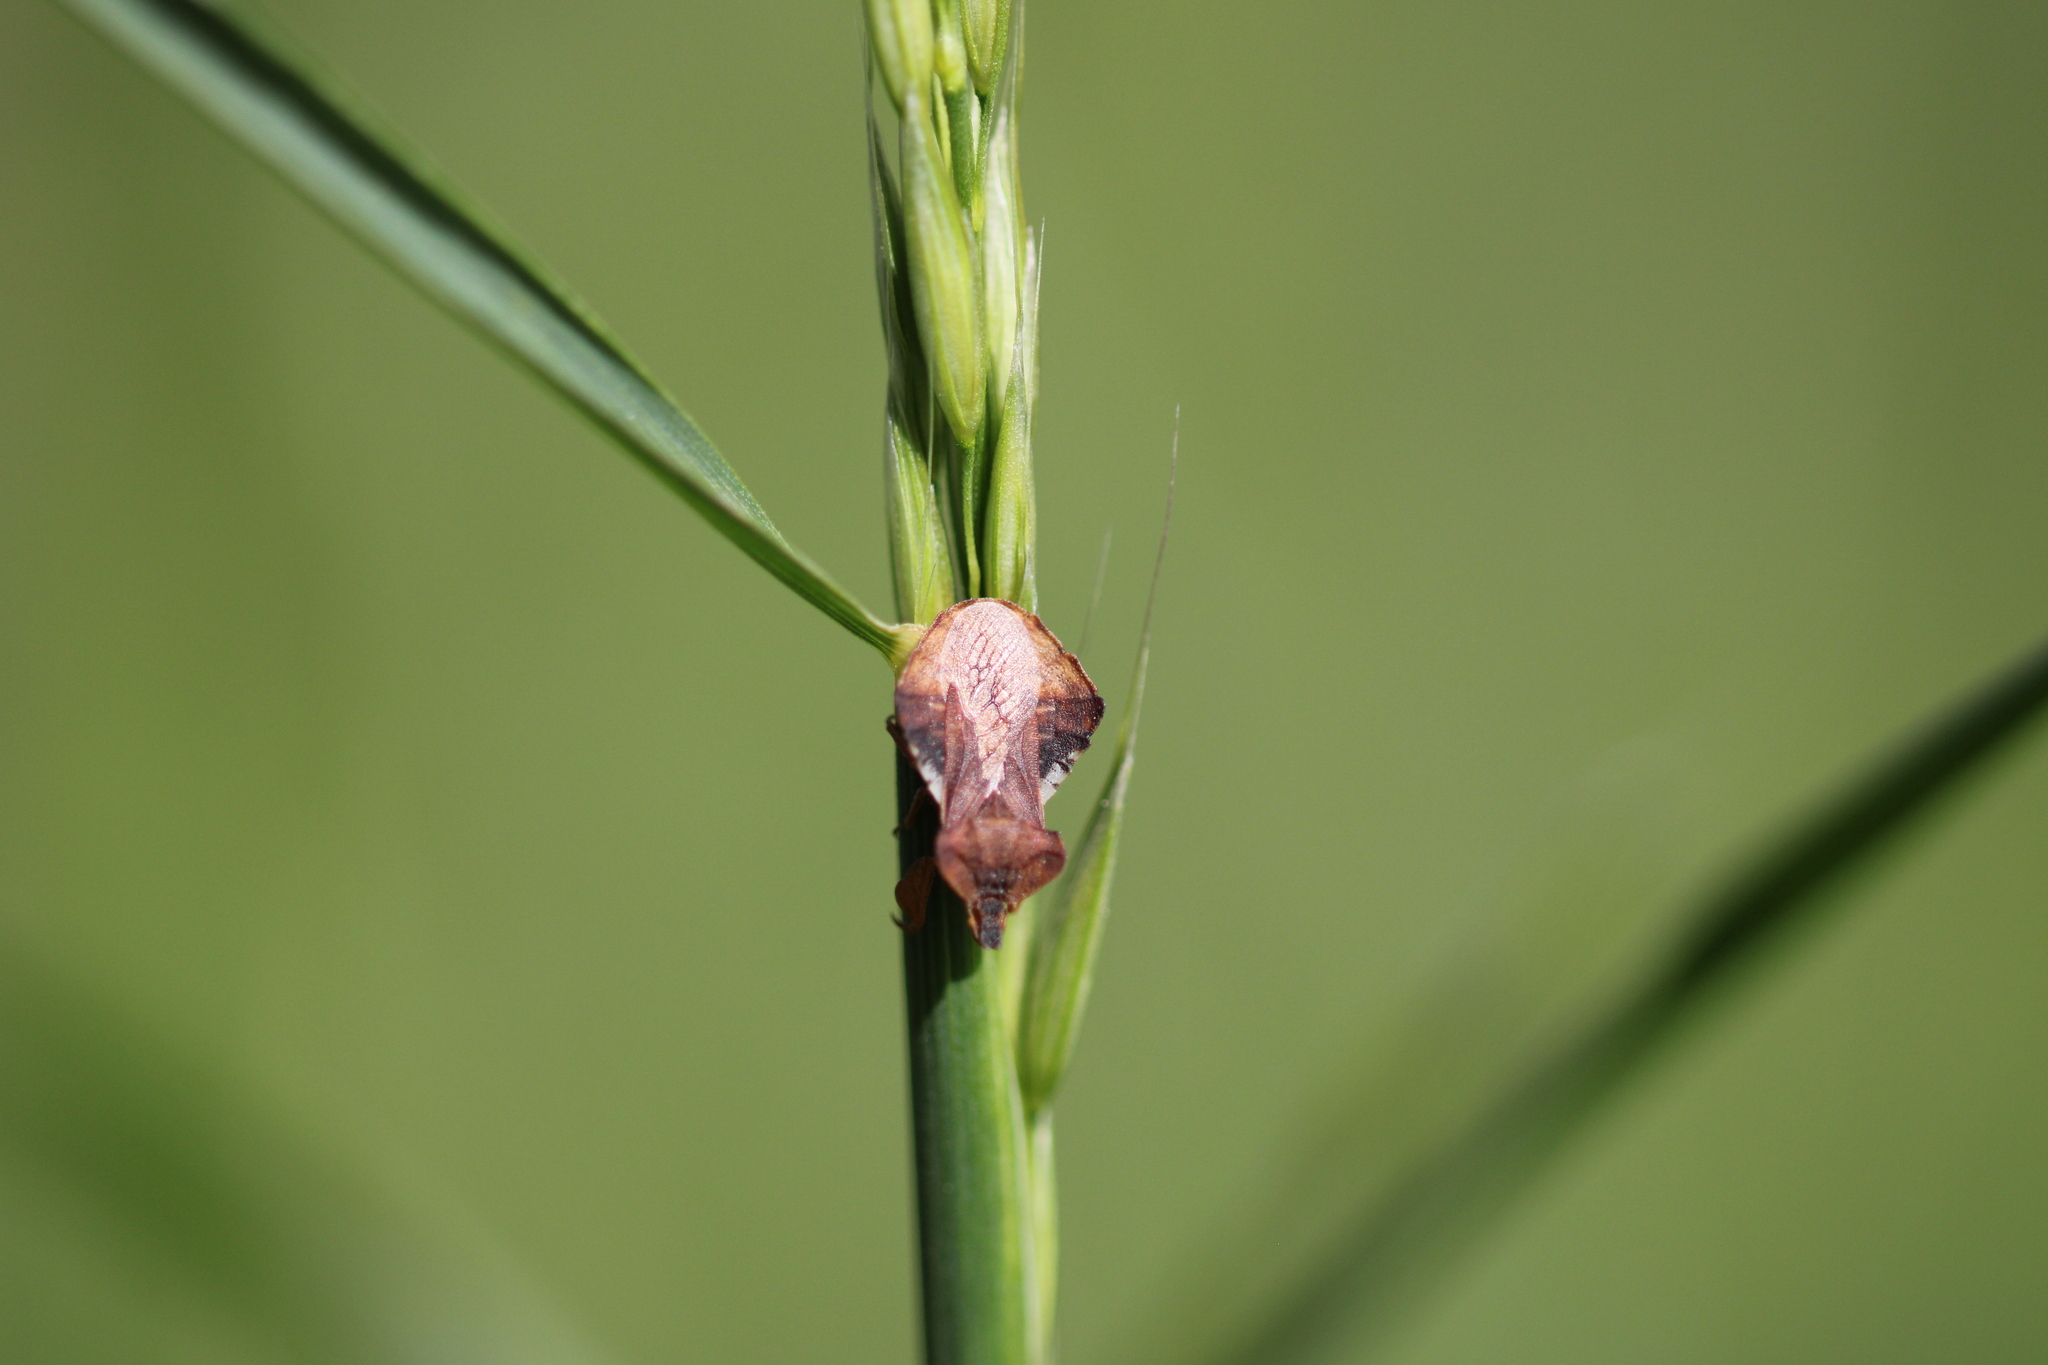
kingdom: Animalia
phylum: Arthropoda
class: Insecta
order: Hemiptera
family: Reduviidae
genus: Phymata
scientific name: Phymata crassipes
